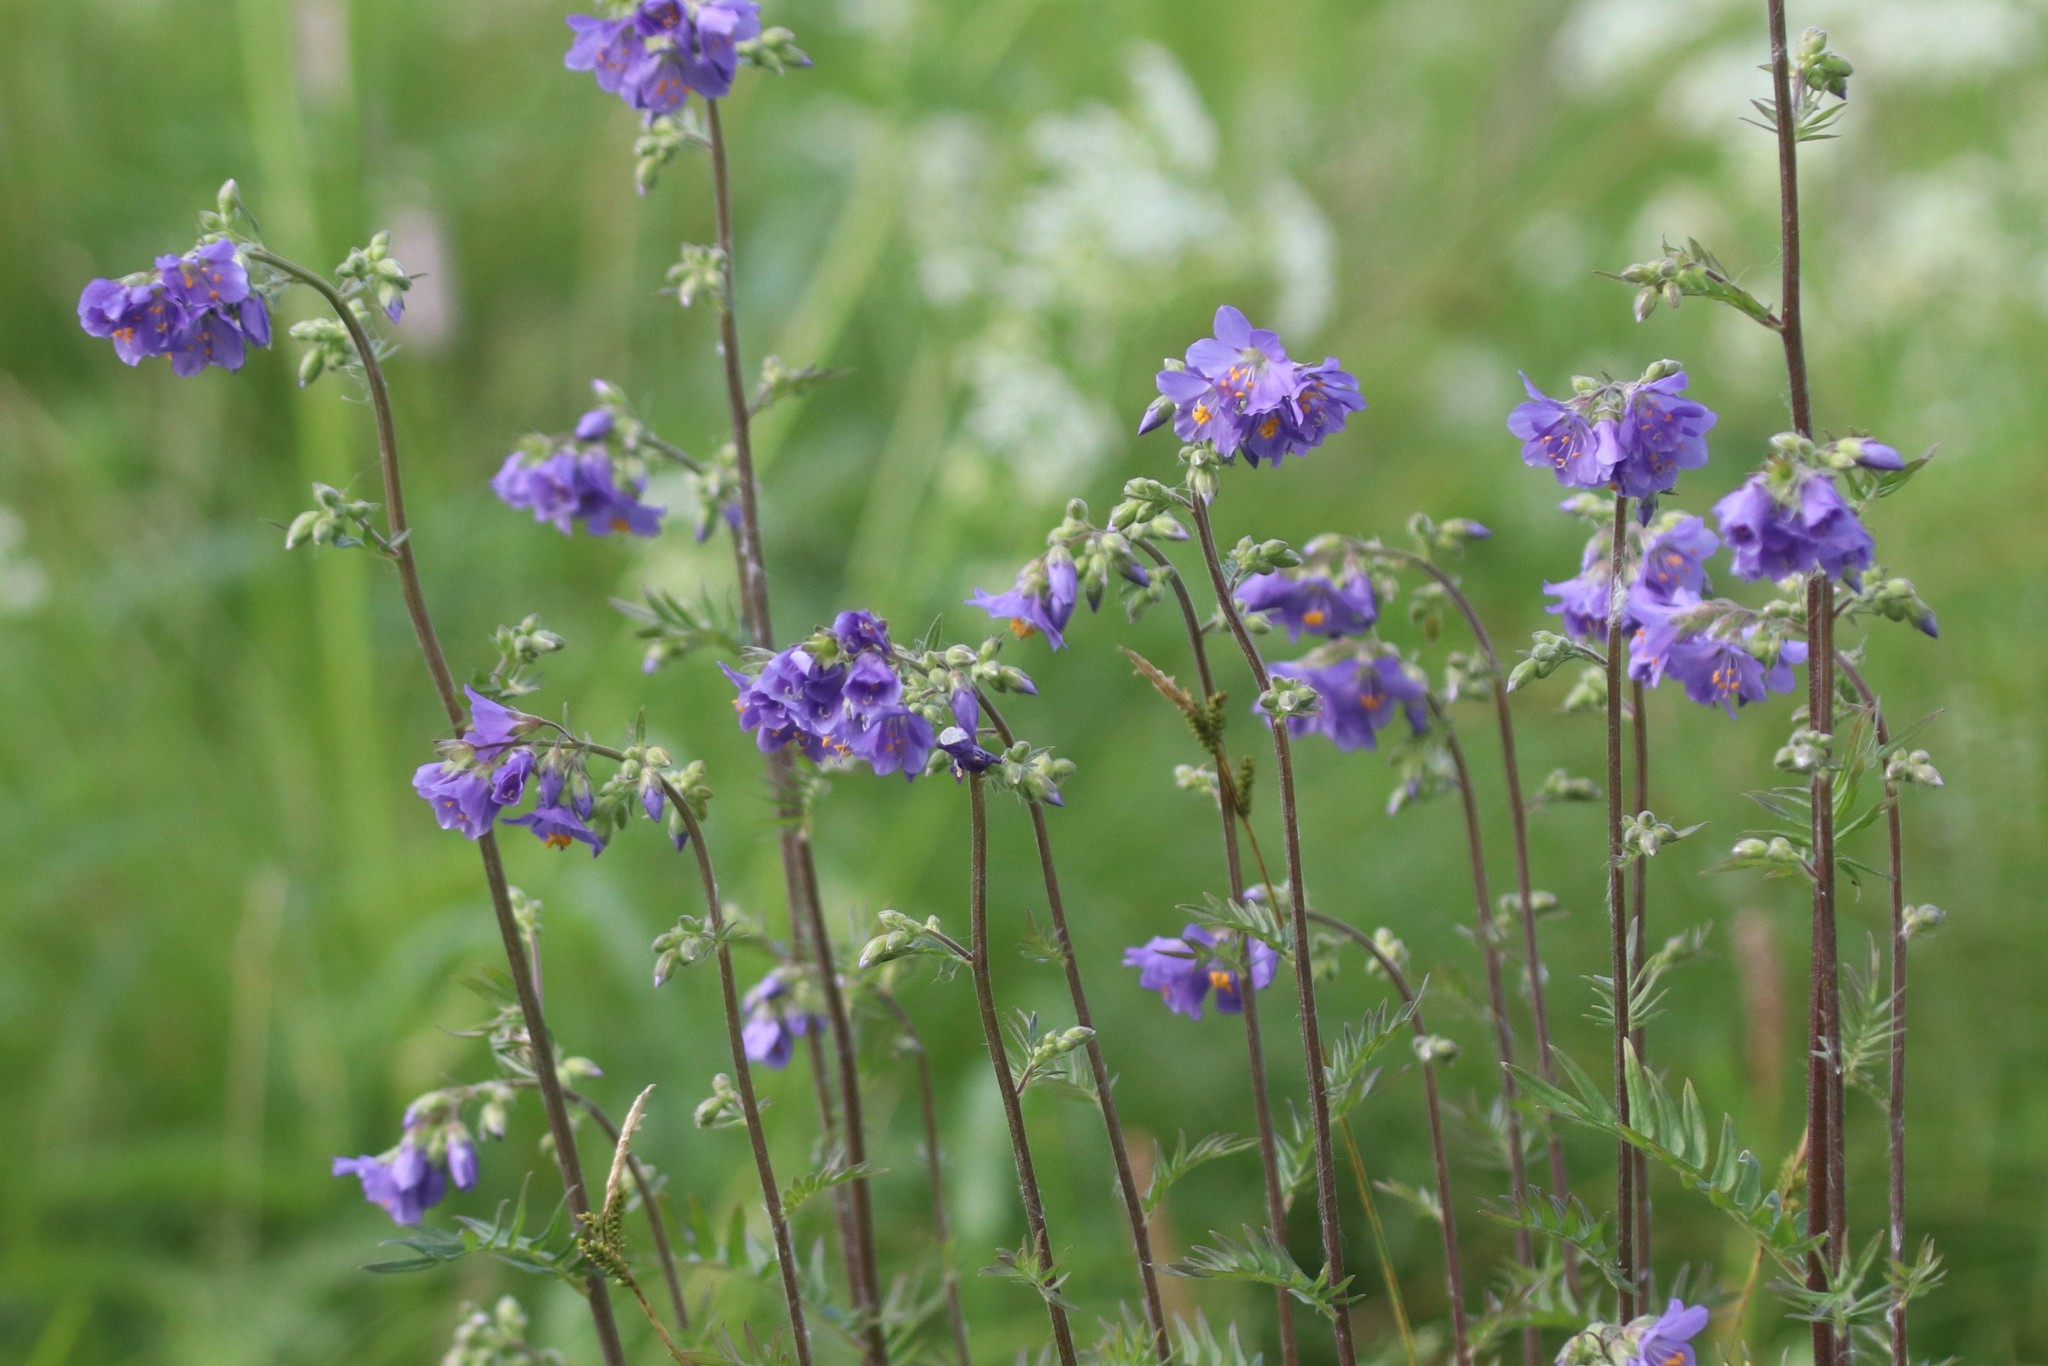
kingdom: Plantae
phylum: Tracheophyta
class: Magnoliopsida
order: Ericales
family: Polemoniaceae
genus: Polemonium
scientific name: Polemonium caeruleum
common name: Jacob's-ladder
